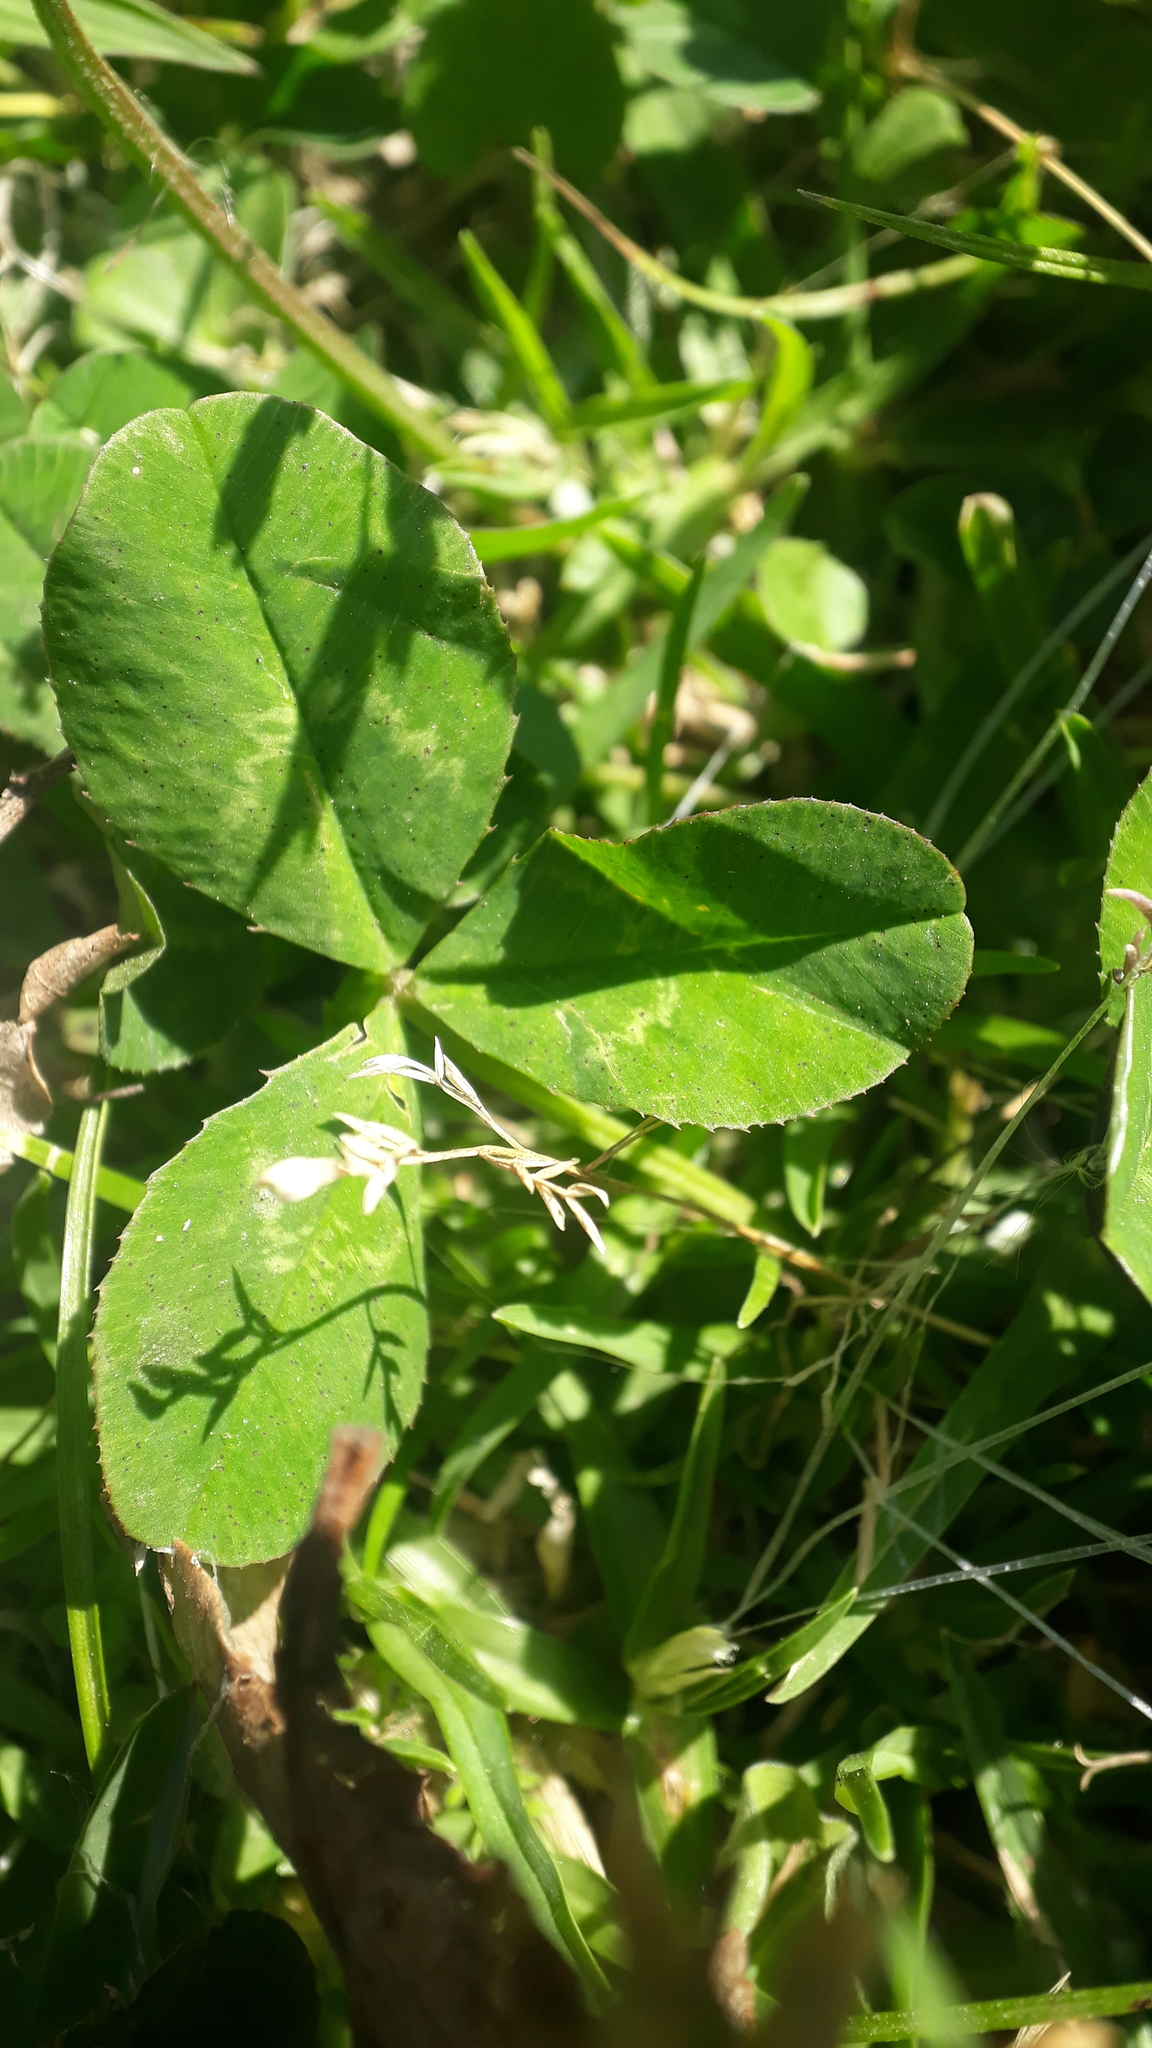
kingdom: Plantae
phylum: Tracheophyta
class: Magnoliopsida
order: Fabales
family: Fabaceae
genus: Trifolium
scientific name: Trifolium repens
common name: White clover
